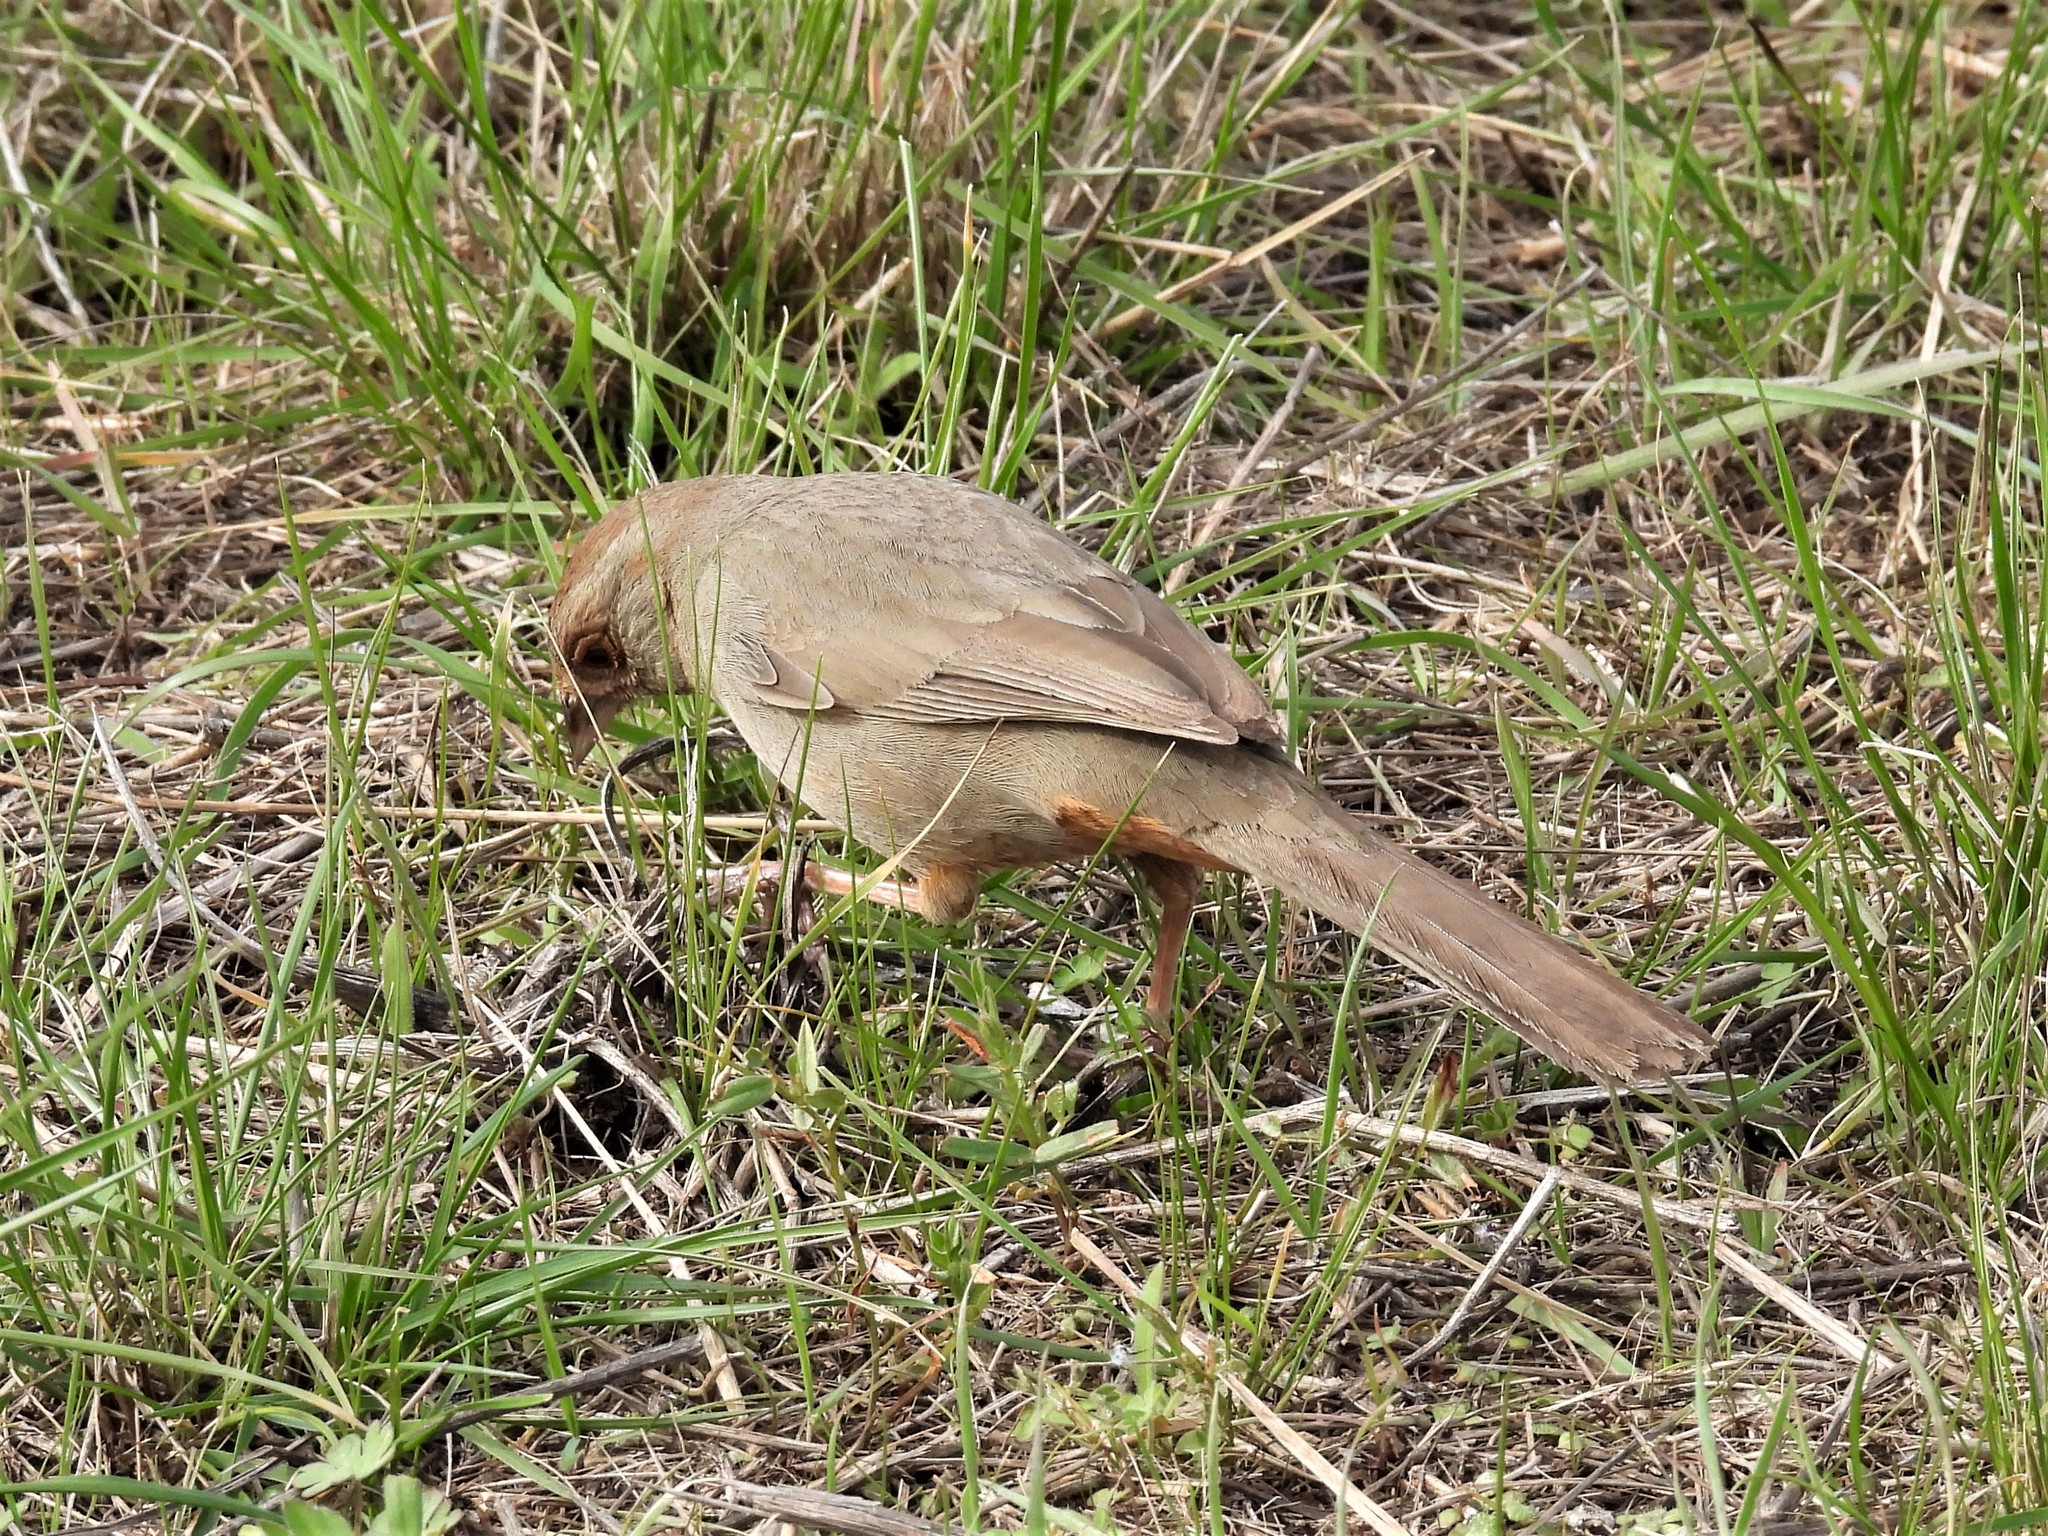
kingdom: Animalia
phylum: Chordata
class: Aves
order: Passeriformes
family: Passerellidae
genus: Melozone
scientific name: Melozone crissalis
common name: California towhee
